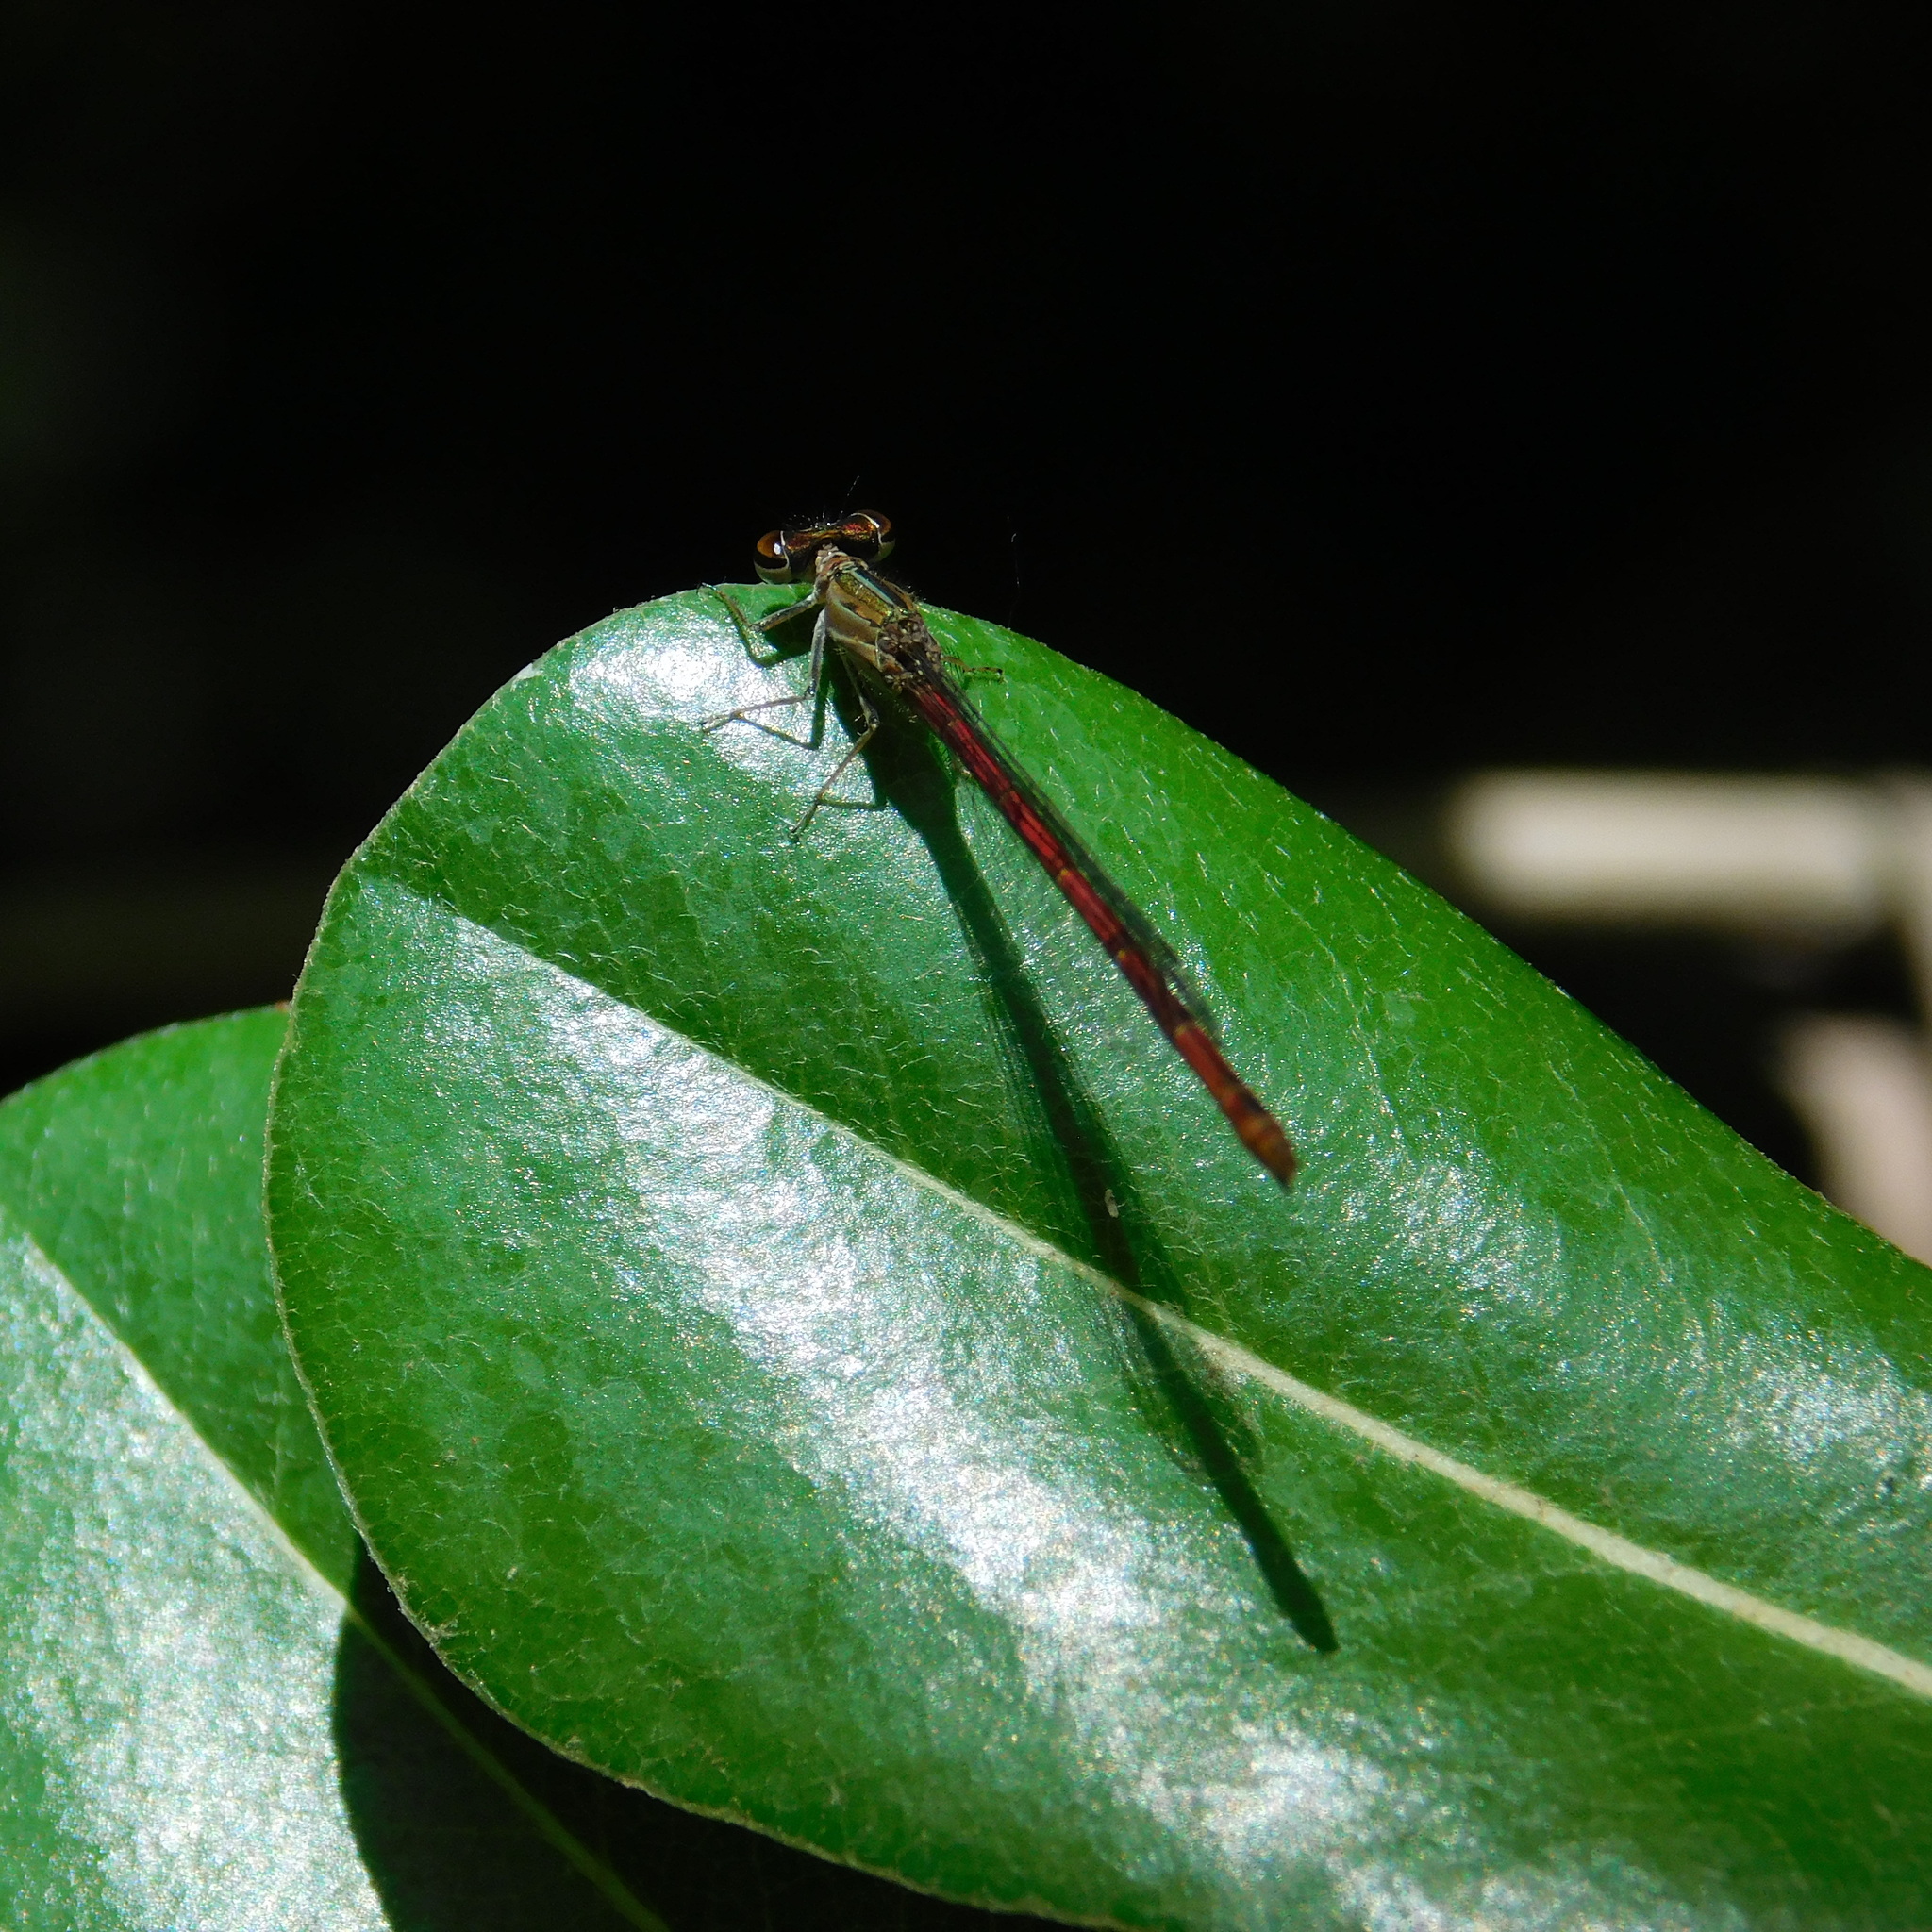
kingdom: Animalia
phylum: Arthropoda
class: Insecta
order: Odonata
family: Coenagrionidae
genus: Telebasis
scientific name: Telebasis willinki
